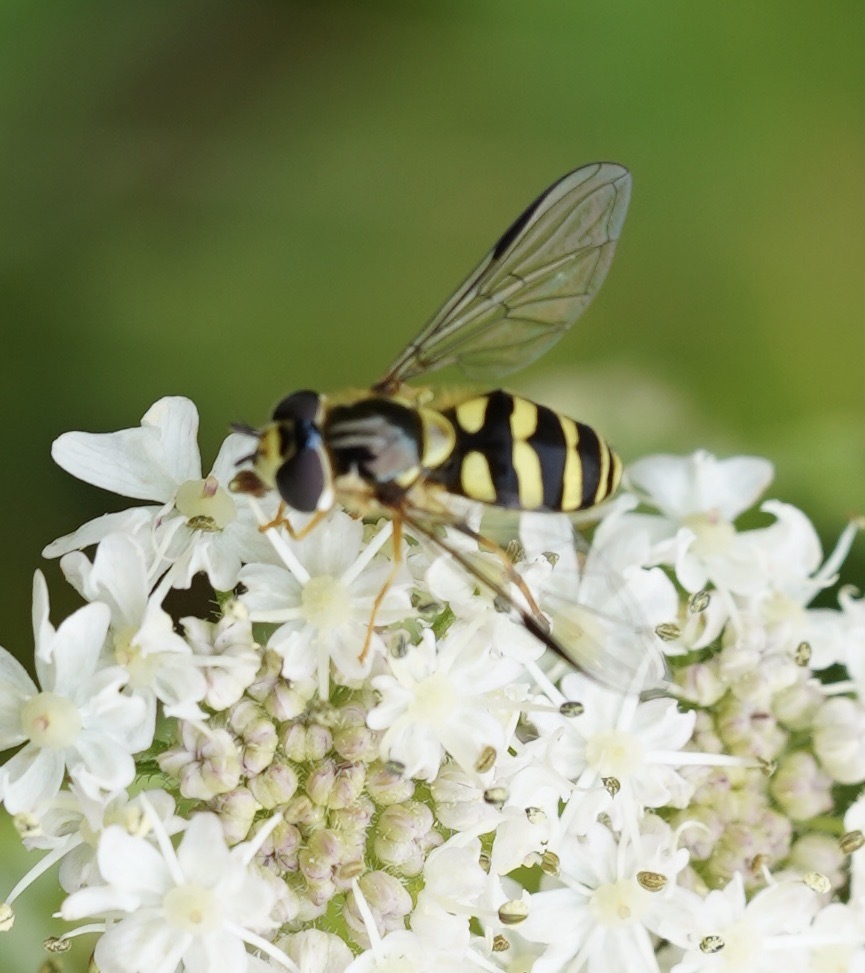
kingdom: Animalia
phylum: Arthropoda
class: Insecta
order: Diptera
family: Syrphidae
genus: Dasysyrphus
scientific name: Dasysyrphus albostriatus
